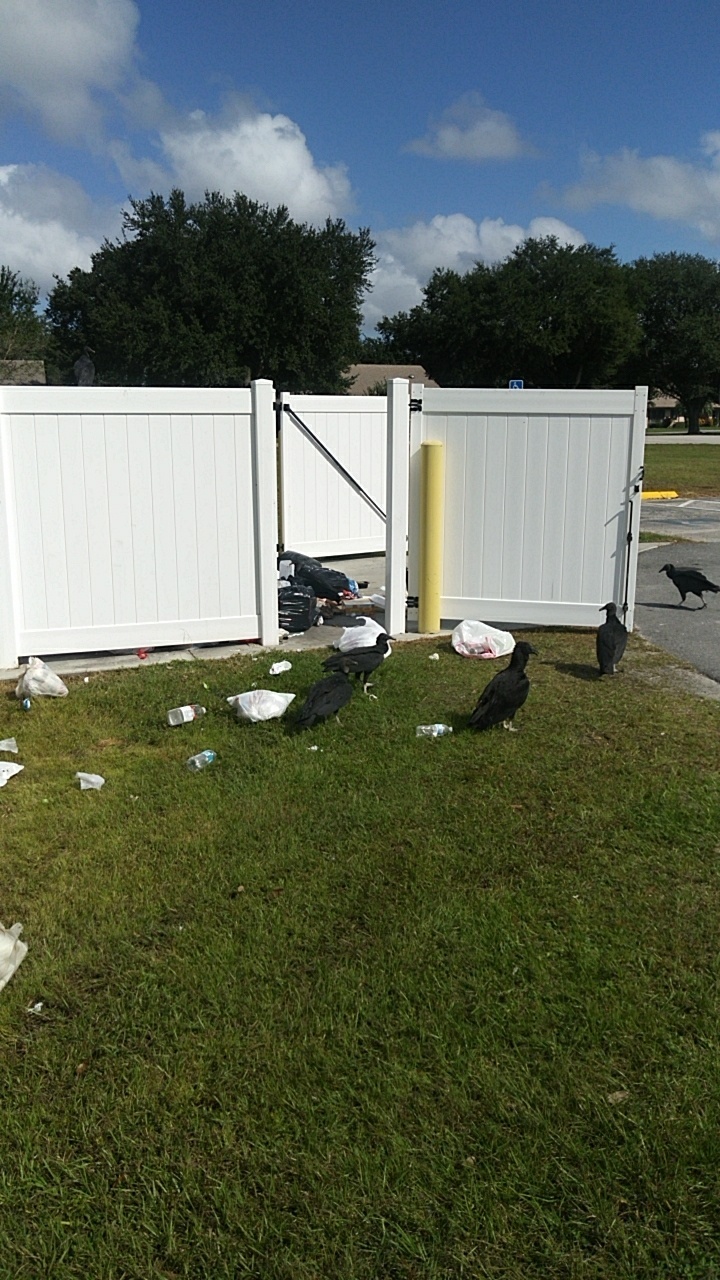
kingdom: Animalia
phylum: Chordata
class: Aves
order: Accipitriformes
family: Cathartidae
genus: Coragyps
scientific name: Coragyps atratus
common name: Black vulture
